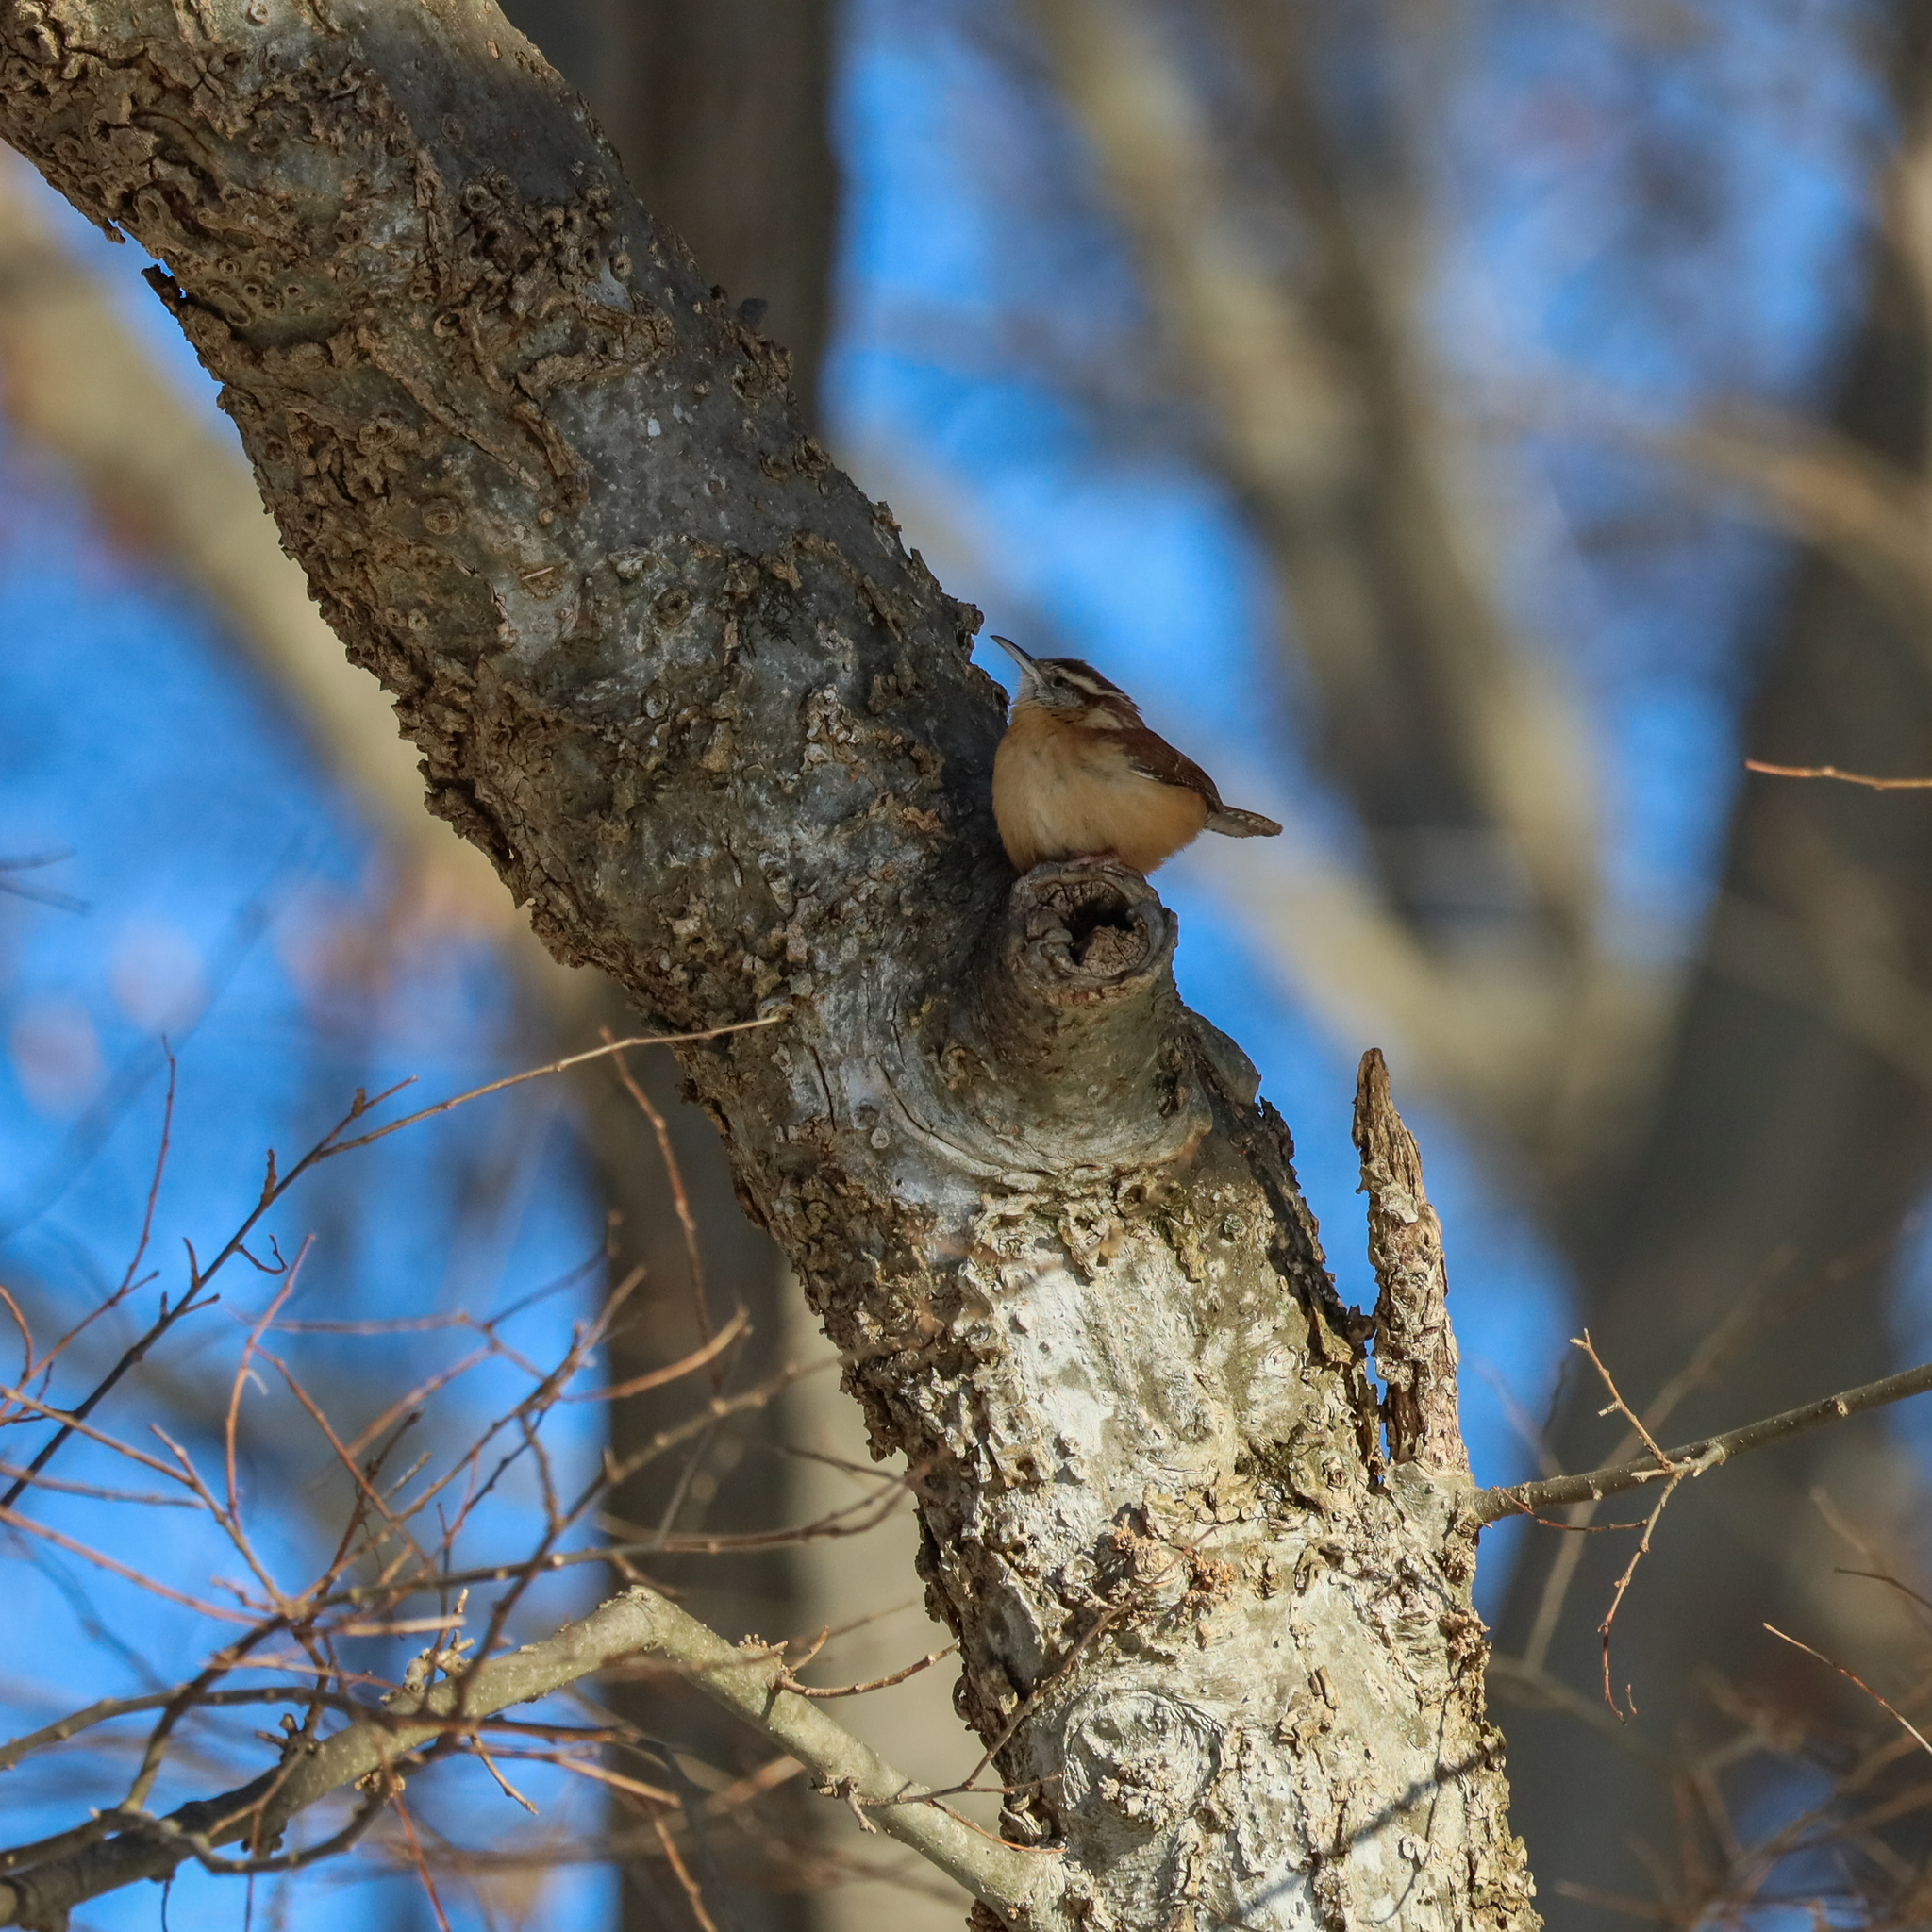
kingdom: Animalia
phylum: Chordata
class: Aves
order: Passeriformes
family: Troglodytidae
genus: Thryothorus
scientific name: Thryothorus ludovicianus
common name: Carolina wren
